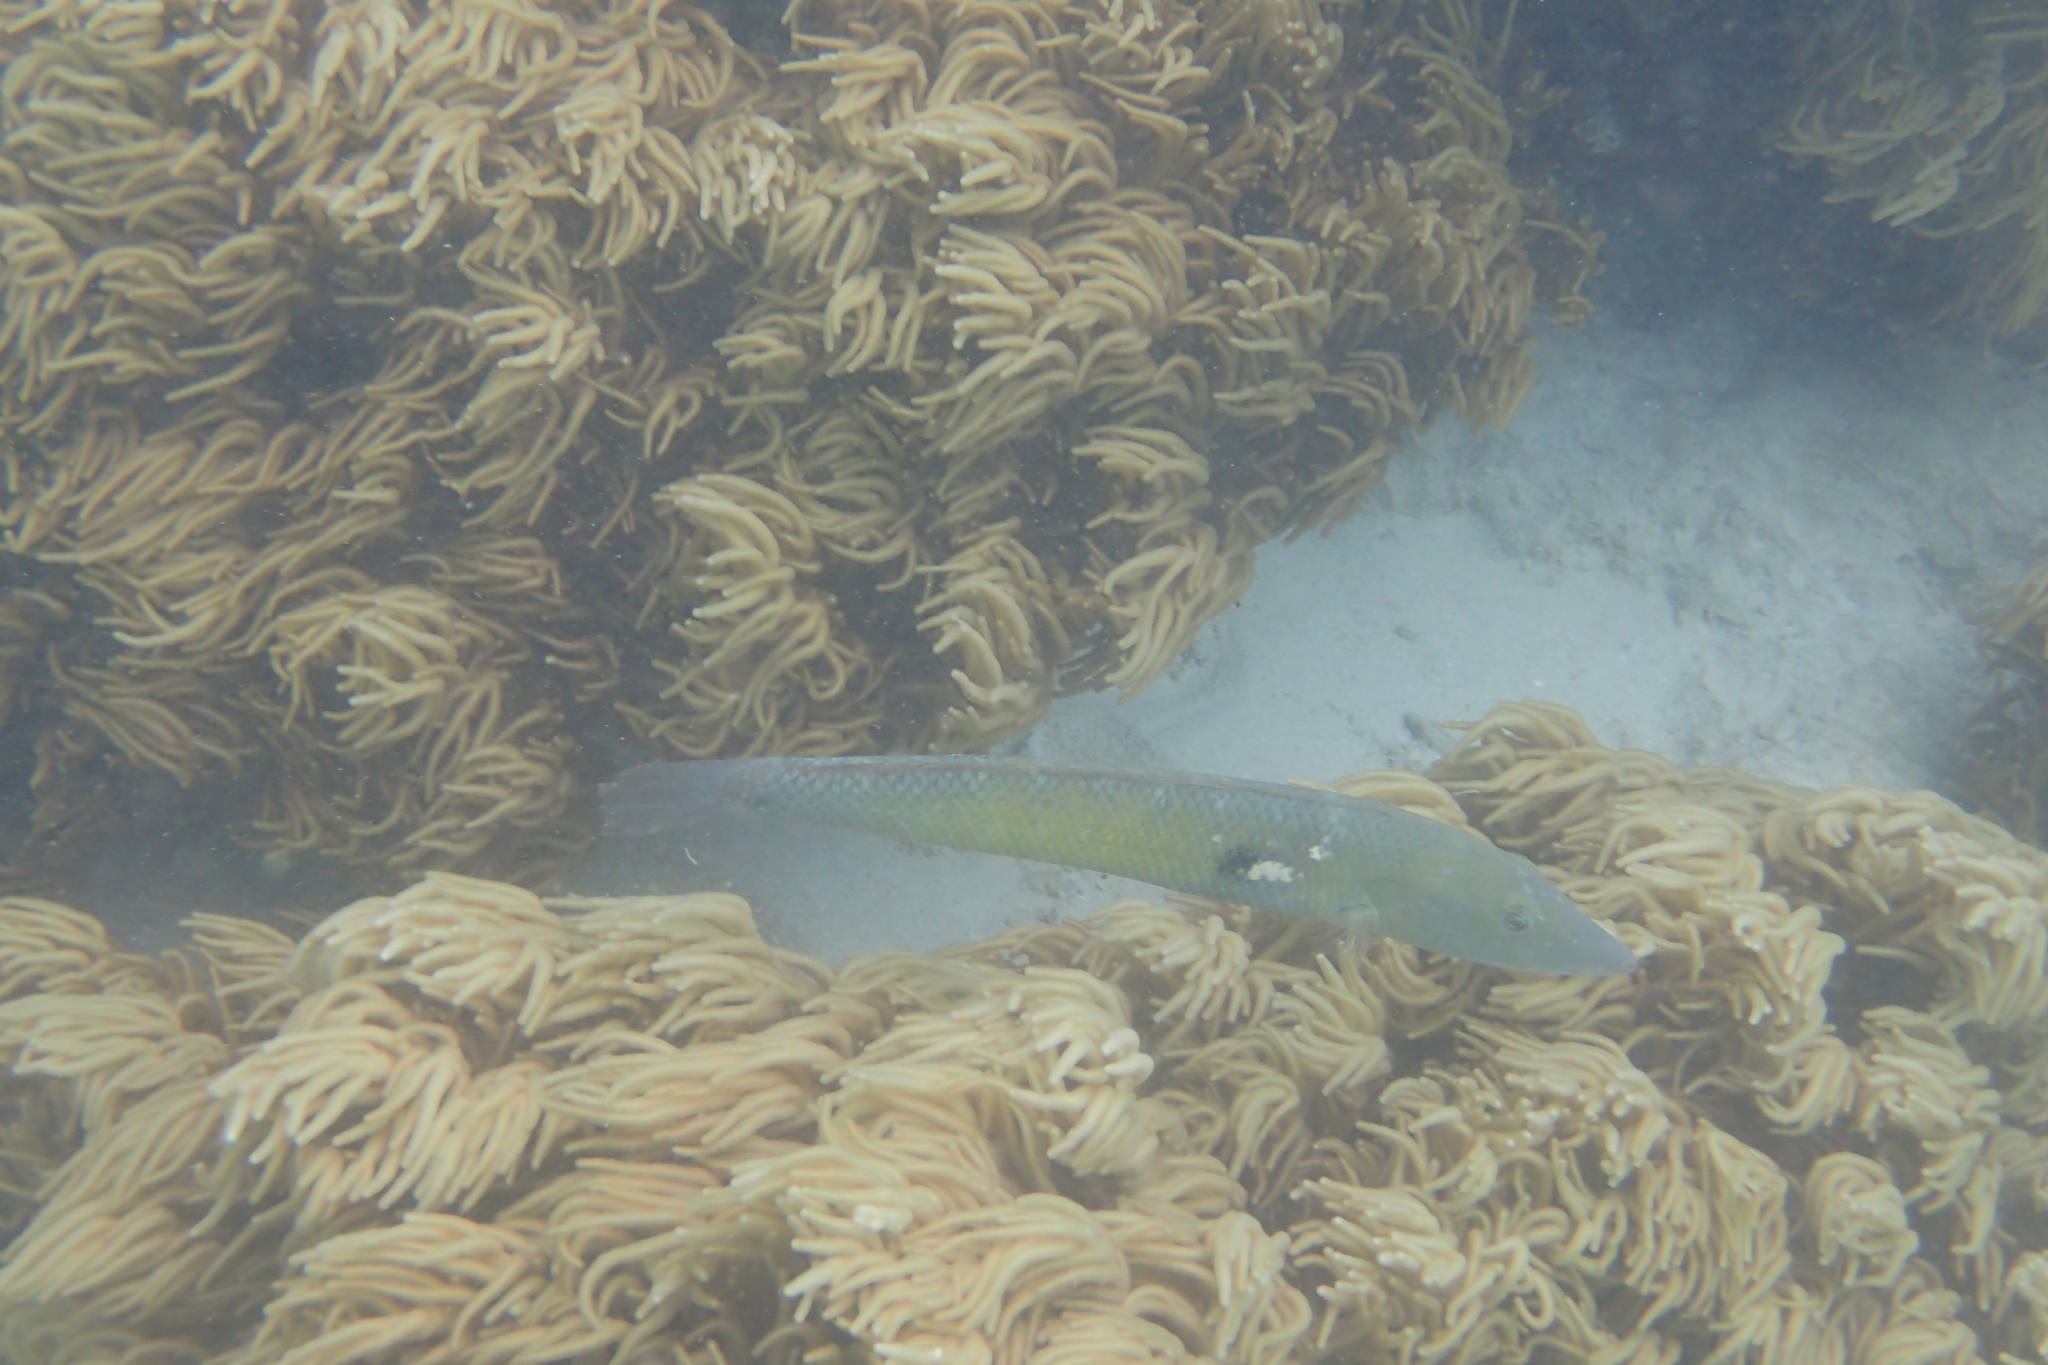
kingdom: Animalia
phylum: Chordata
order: Perciformes
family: Labridae
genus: Cheilio
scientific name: Cheilio inermis
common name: Cigar wrasse
